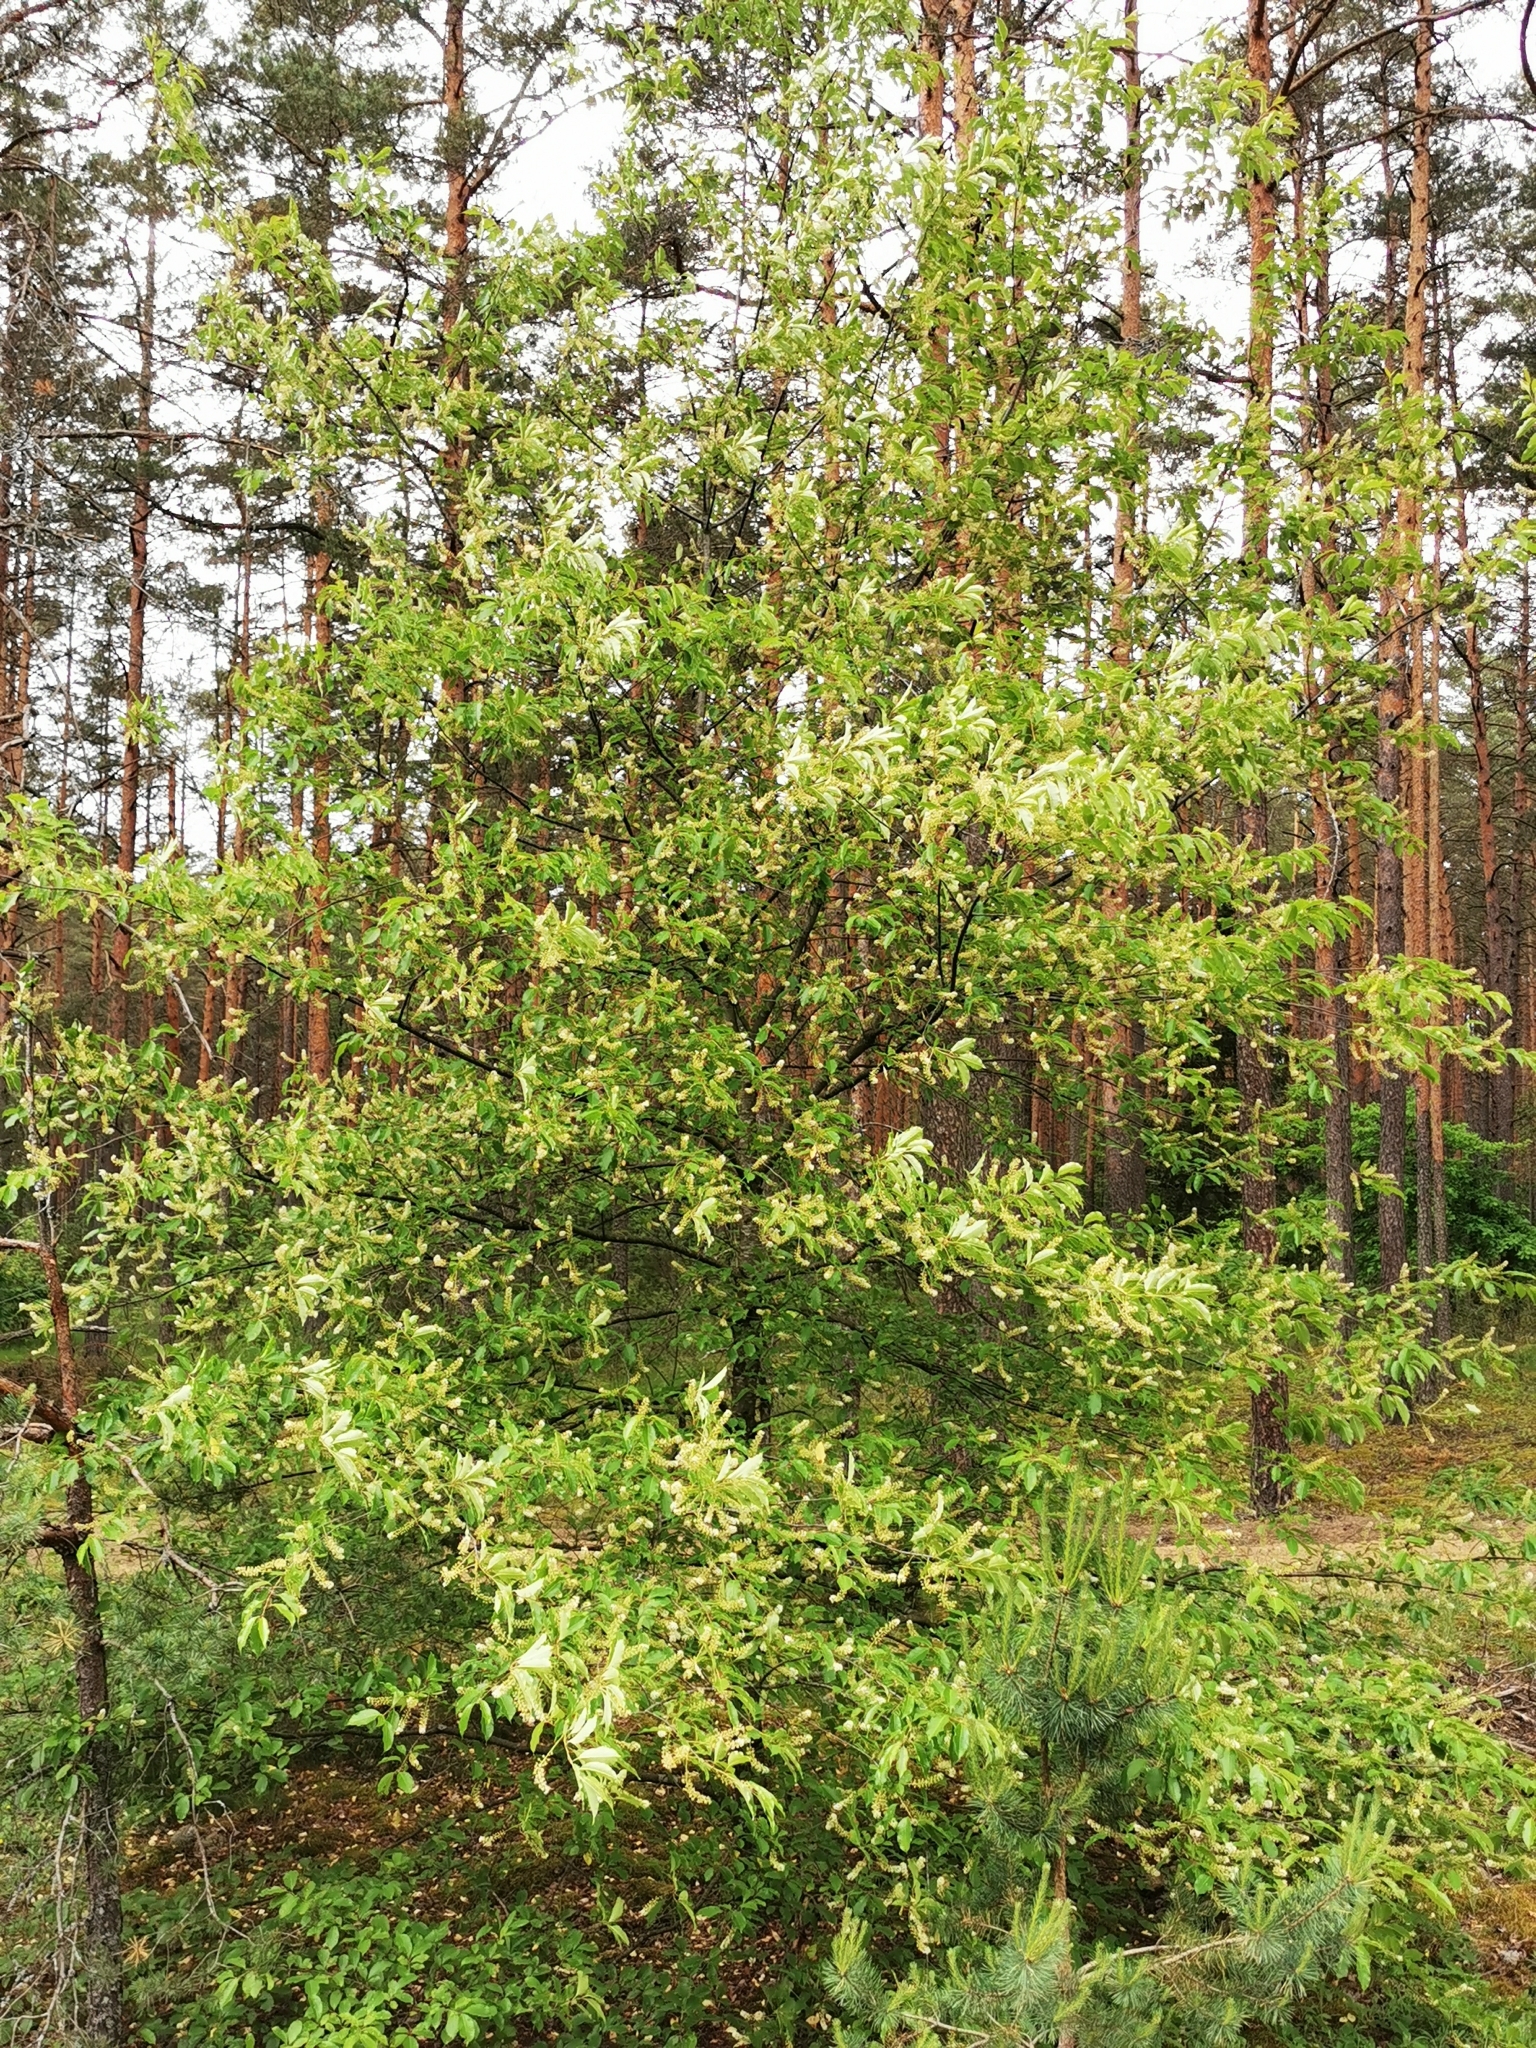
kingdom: Plantae
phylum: Tracheophyta
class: Magnoliopsida
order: Rosales
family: Rosaceae
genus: Prunus
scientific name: Prunus serotina
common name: Black cherry
